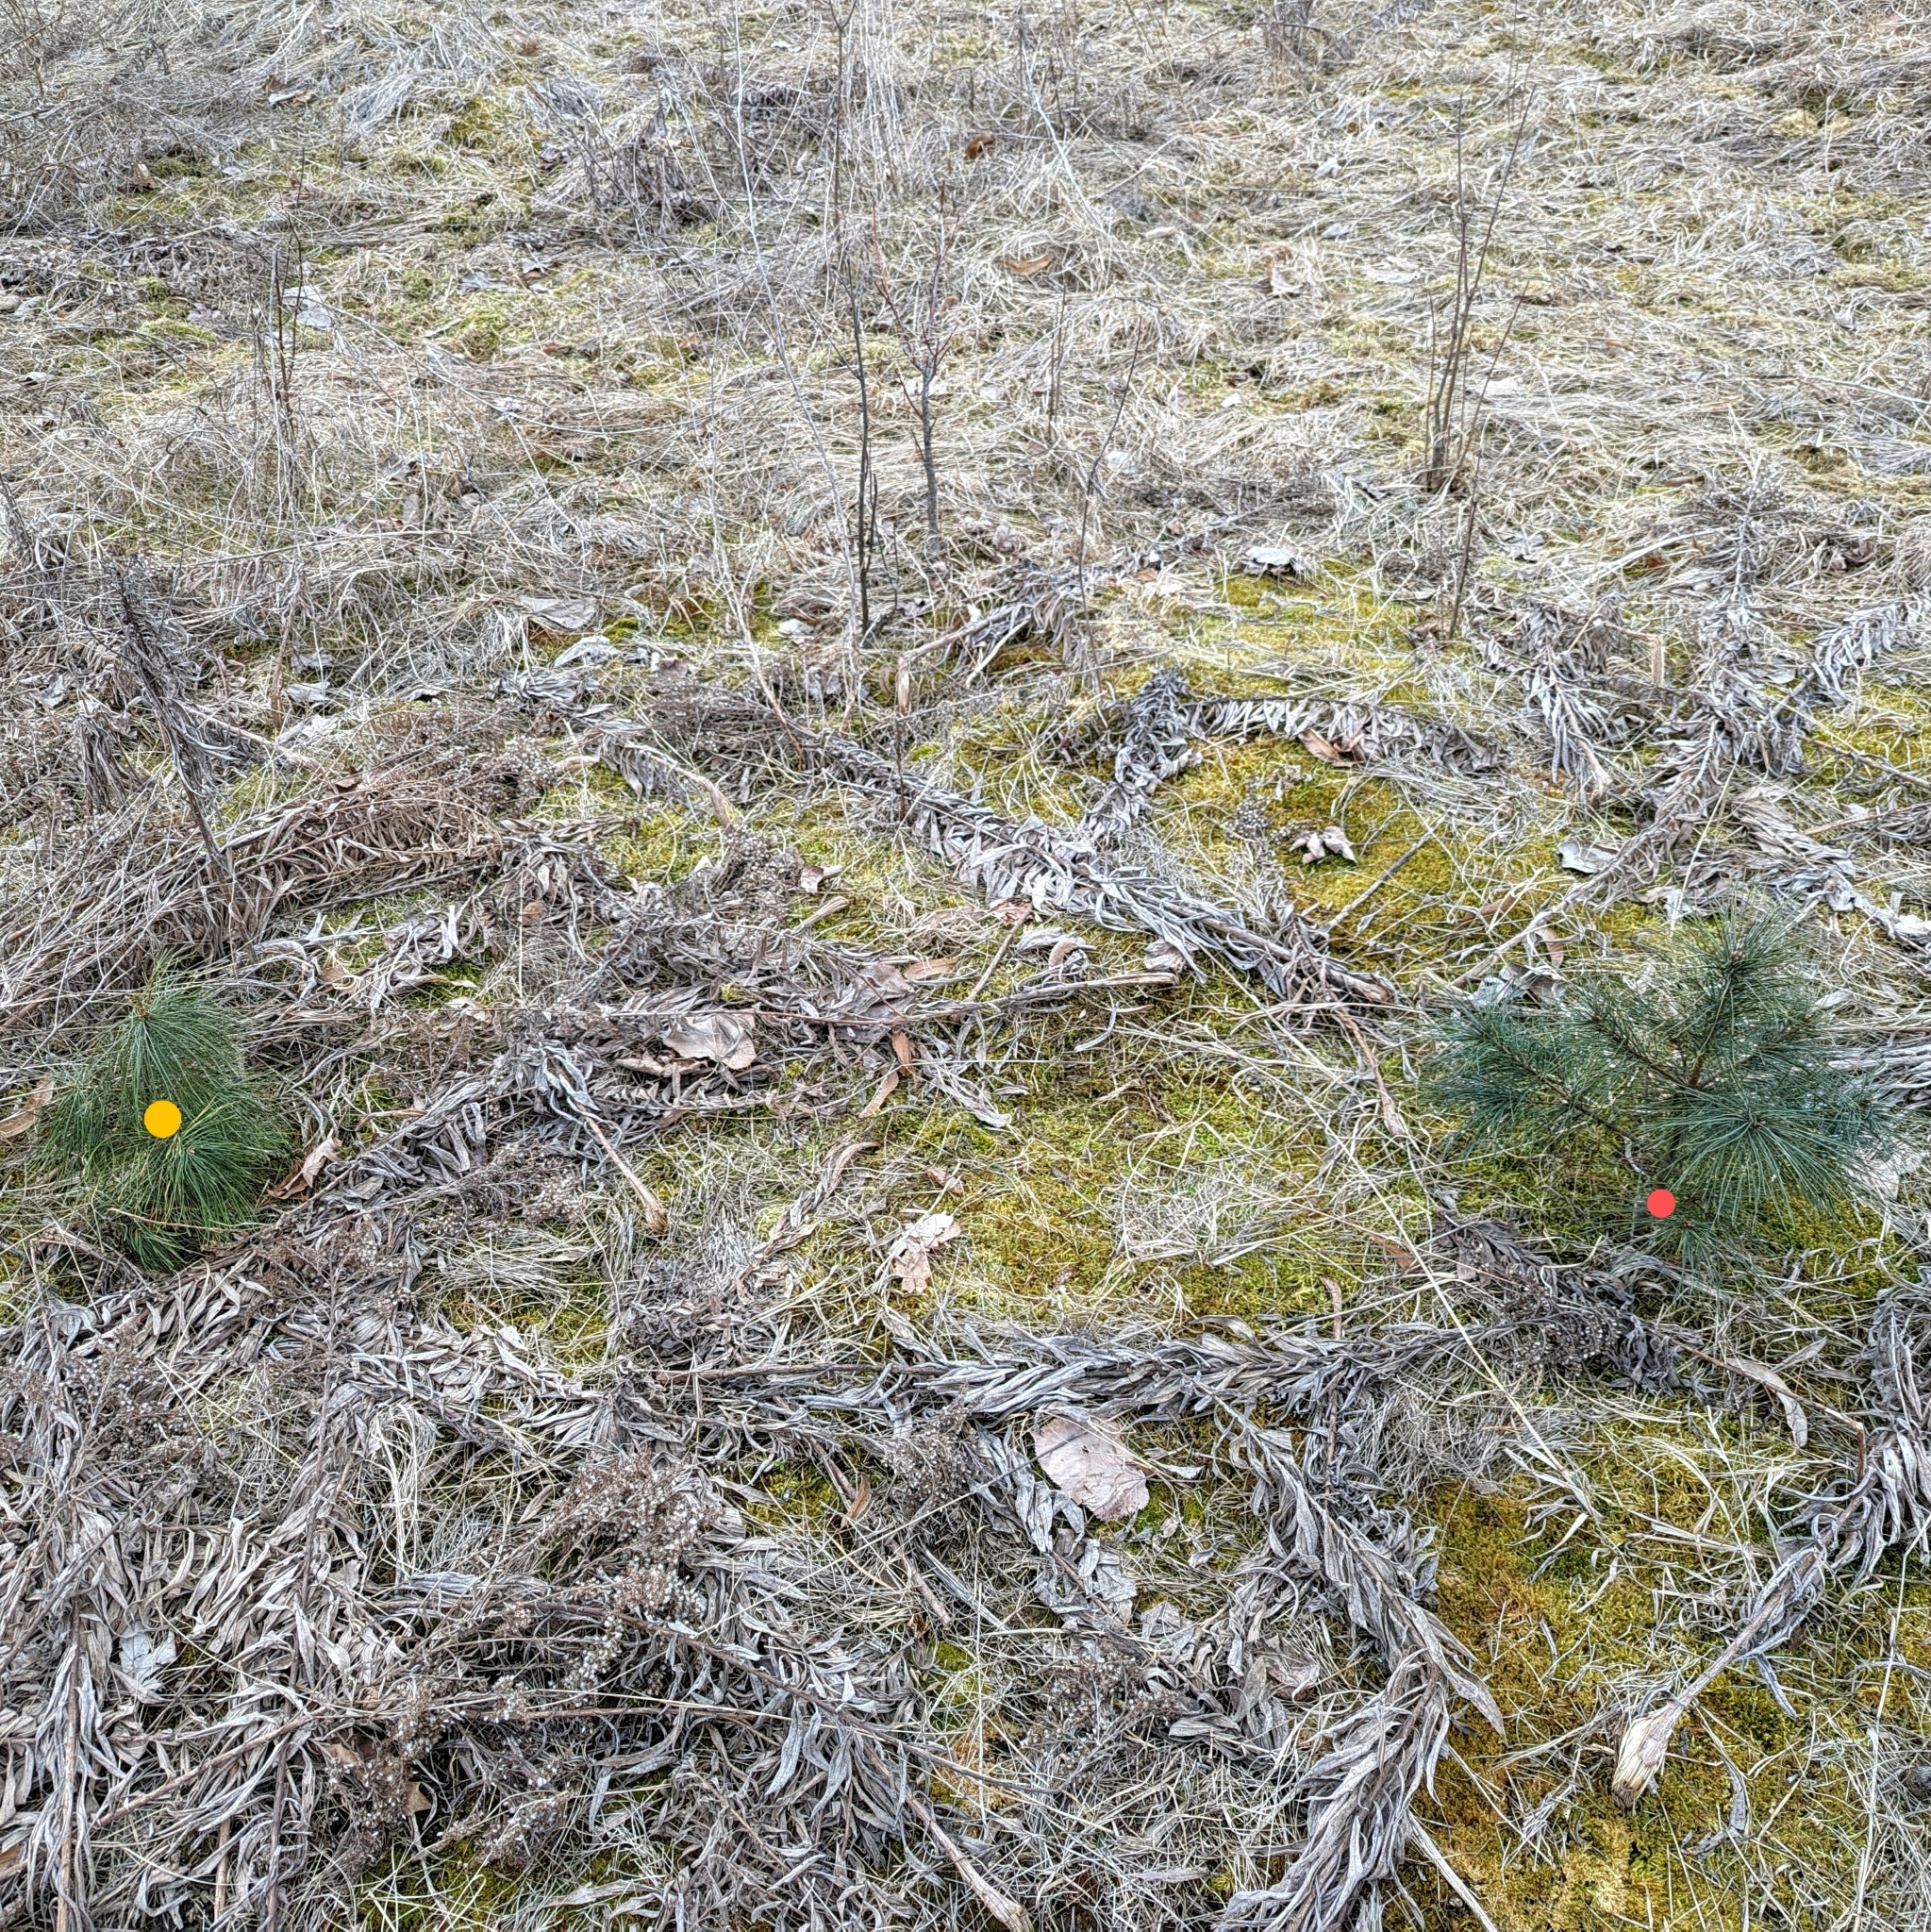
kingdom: Plantae
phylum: Tracheophyta
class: Pinopsida
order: Pinales
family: Pinaceae
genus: Pinus
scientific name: Pinus strobus
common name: Weymouth pine
